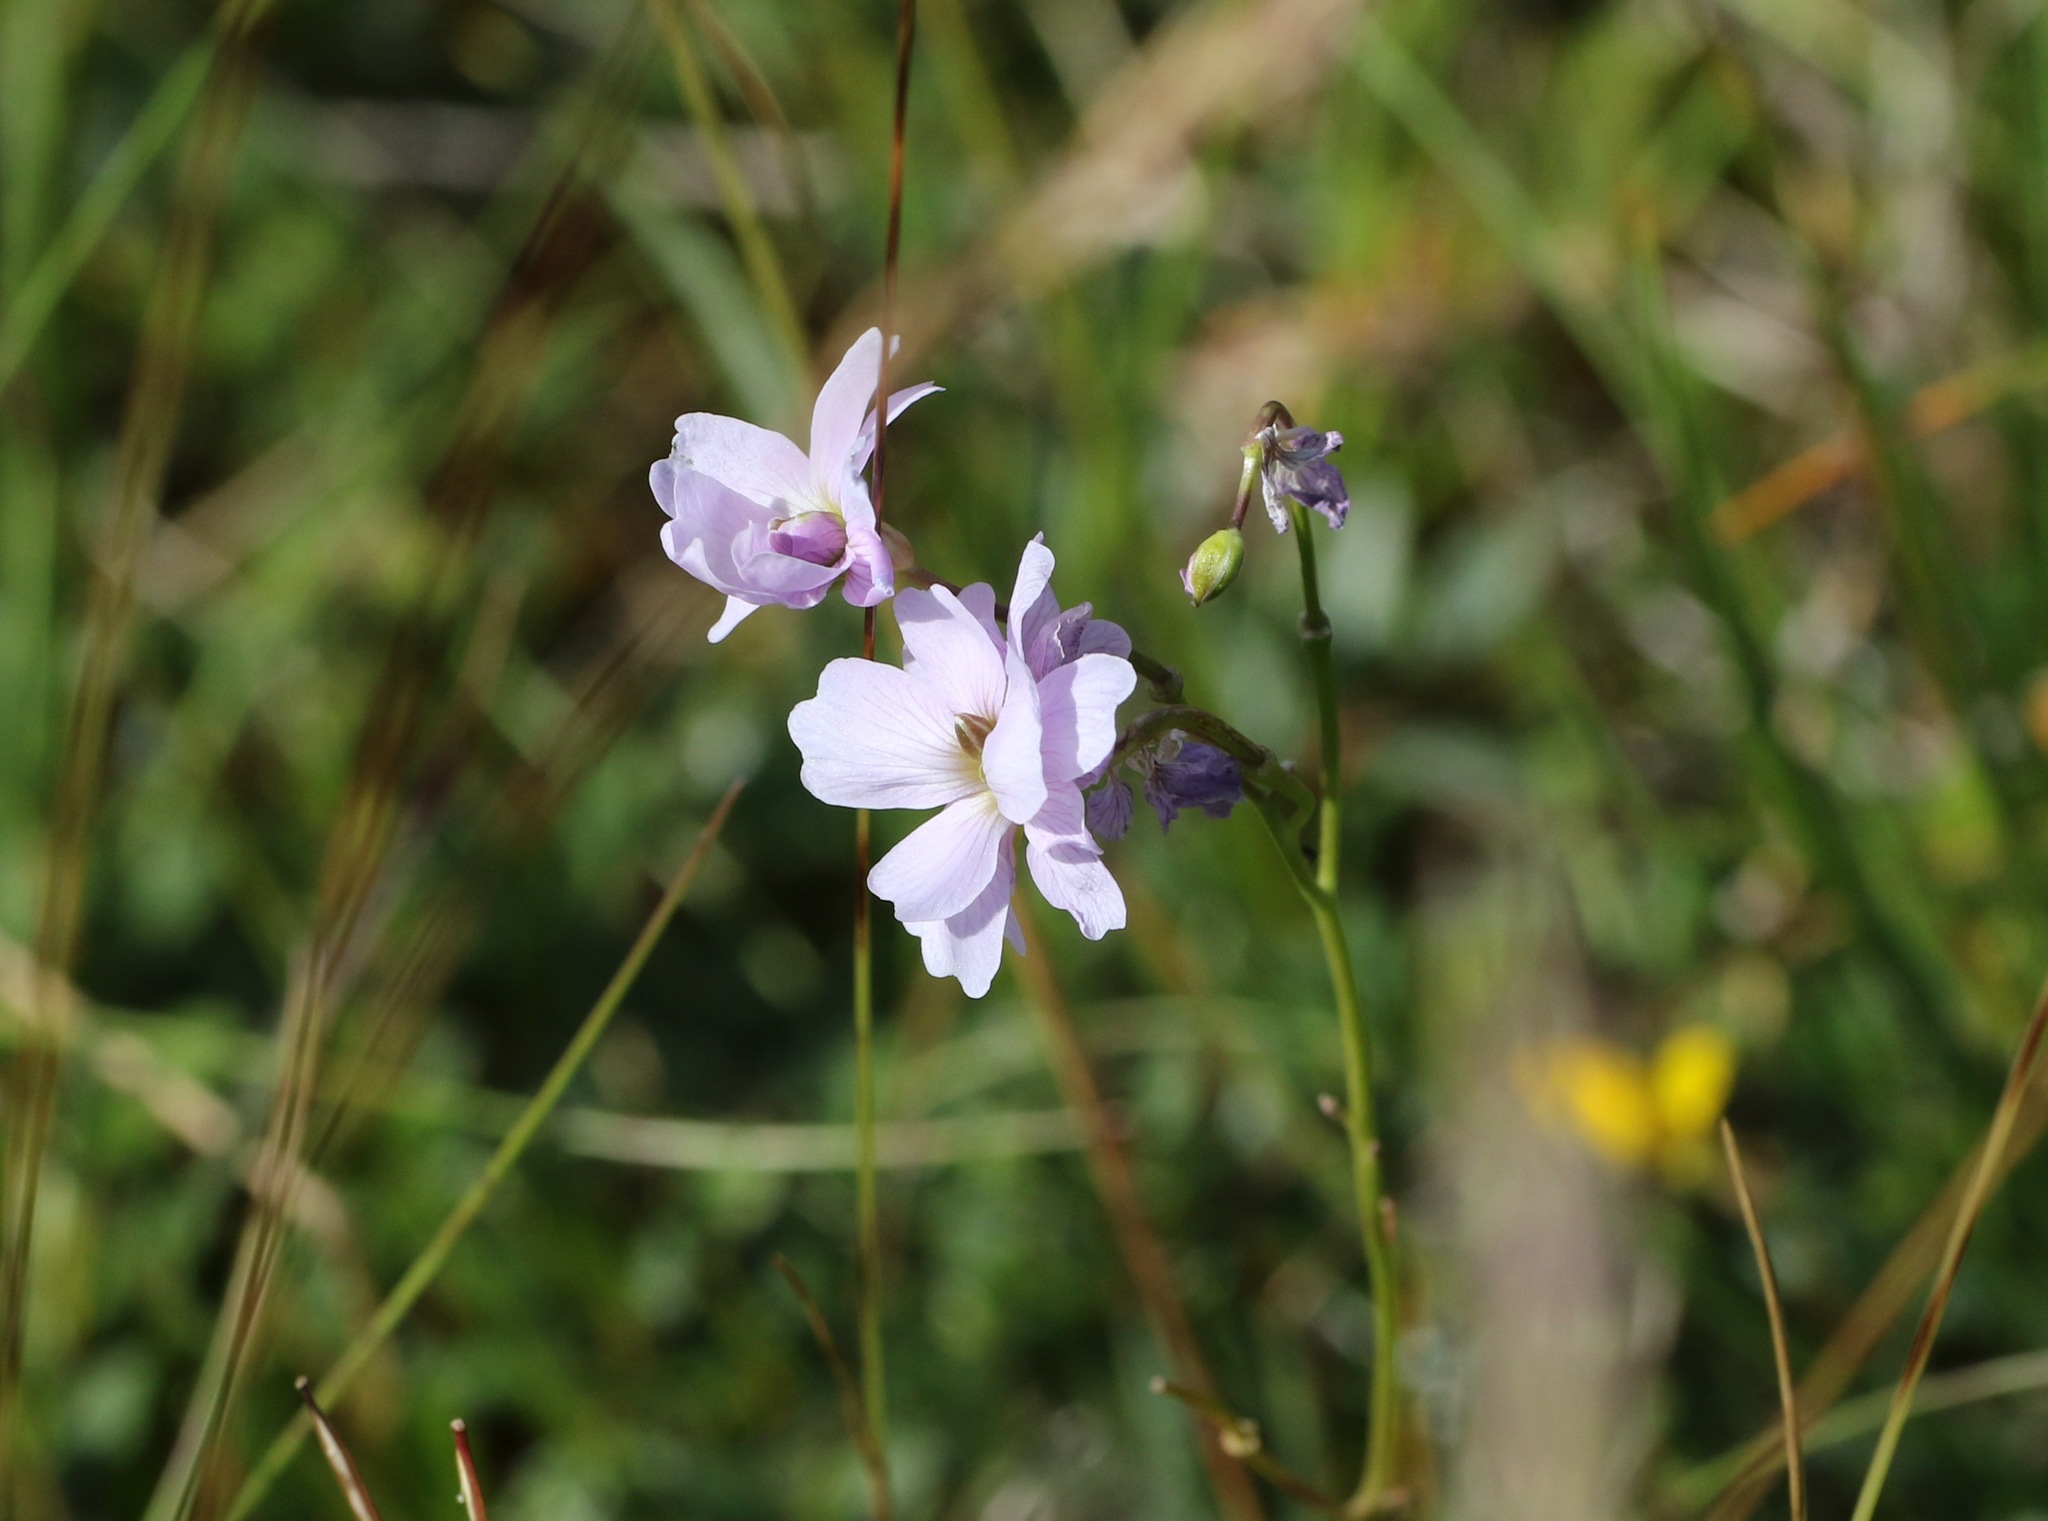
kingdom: Plantae
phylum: Tracheophyta
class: Magnoliopsida
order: Brassicales
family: Brassicaceae
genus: Cardamine
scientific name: Cardamine pratensis
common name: Cuckoo flower
